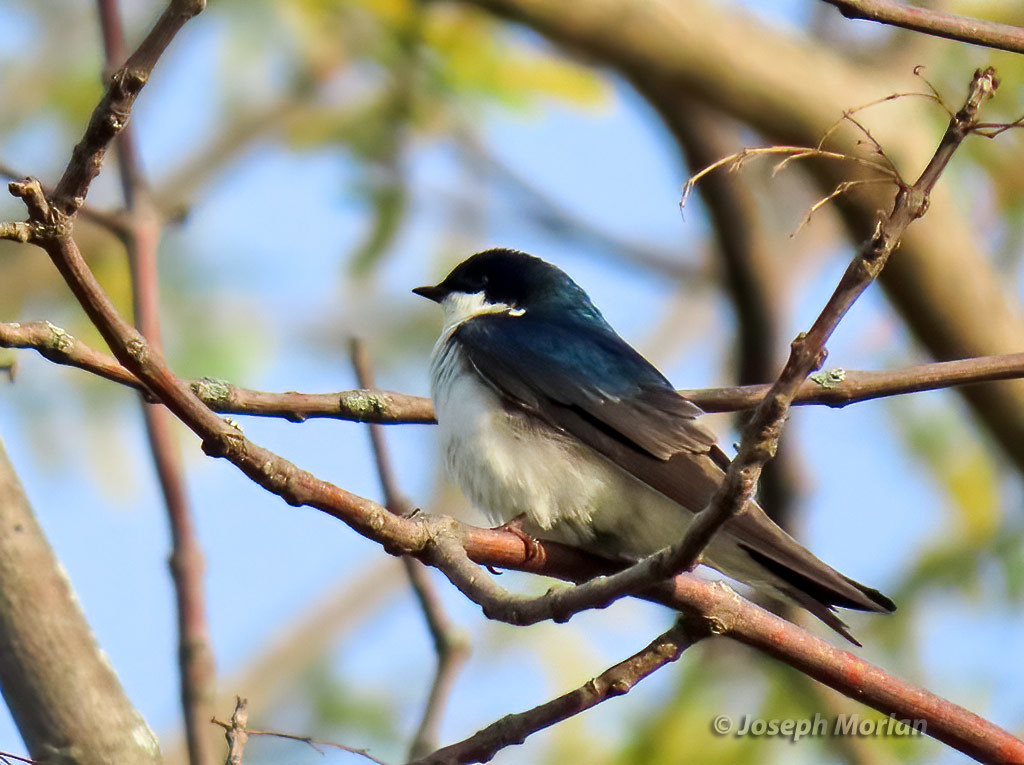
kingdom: Animalia
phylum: Chordata
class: Aves
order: Passeriformes
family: Hirundinidae
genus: Tachycineta
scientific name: Tachycineta bicolor
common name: Tree swallow
